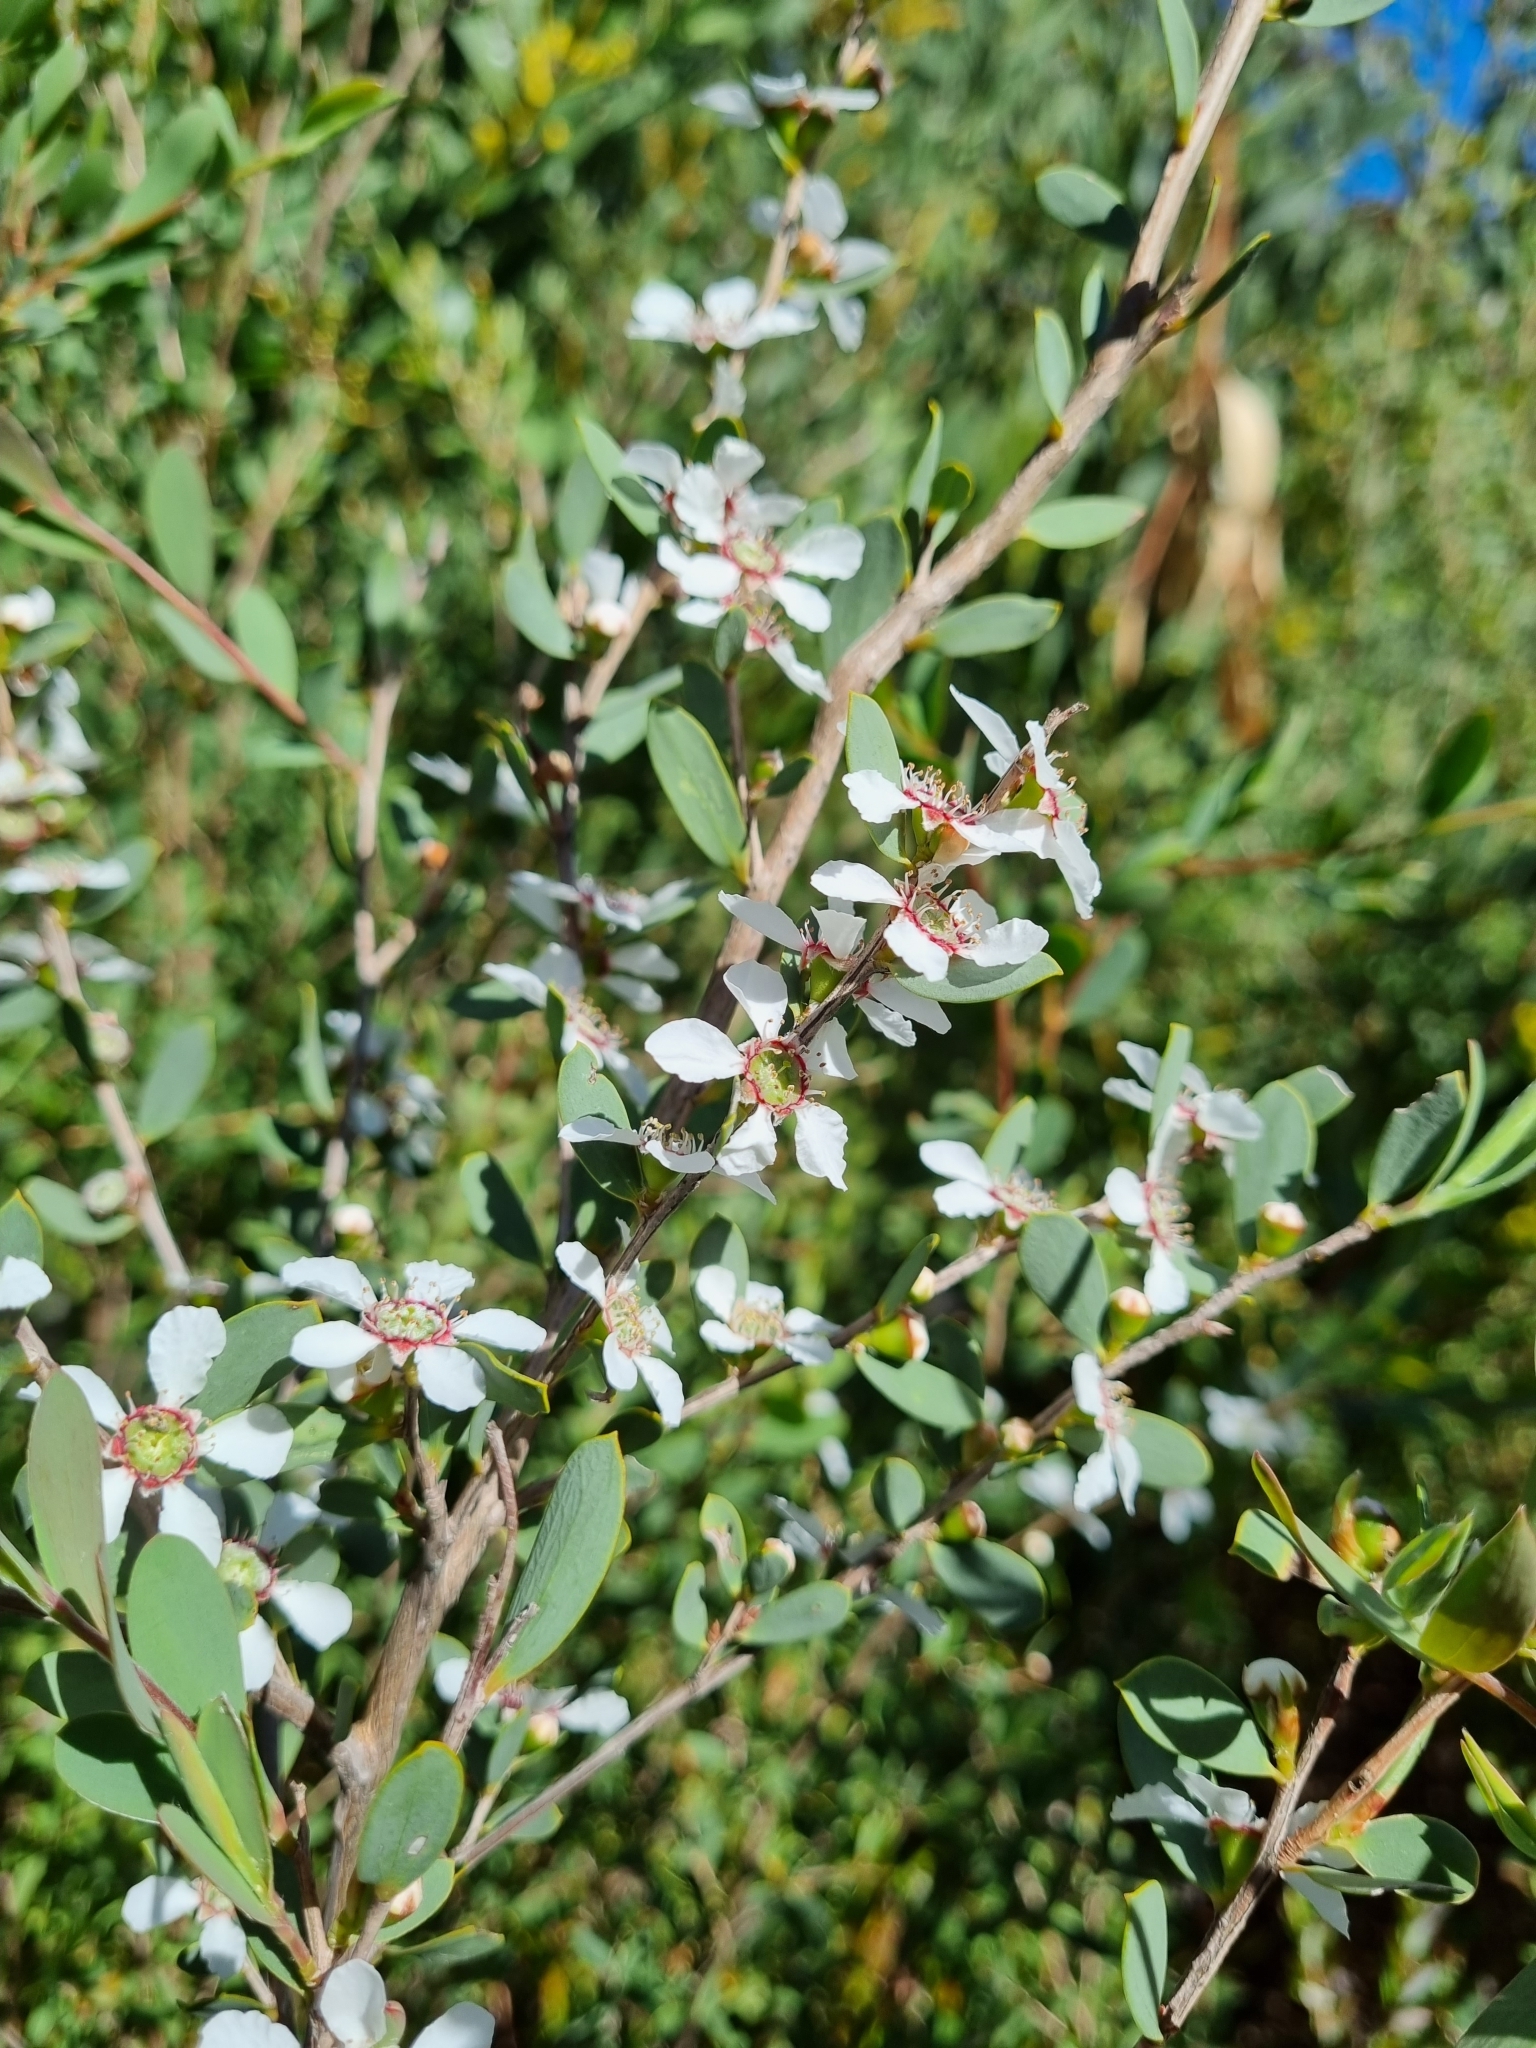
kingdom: Plantae
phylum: Tracheophyta
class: Magnoliopsida
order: Myrtales
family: Myrtaceae
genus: Leptospermum
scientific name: Leptospermum laevigatum
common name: Australian teatree
